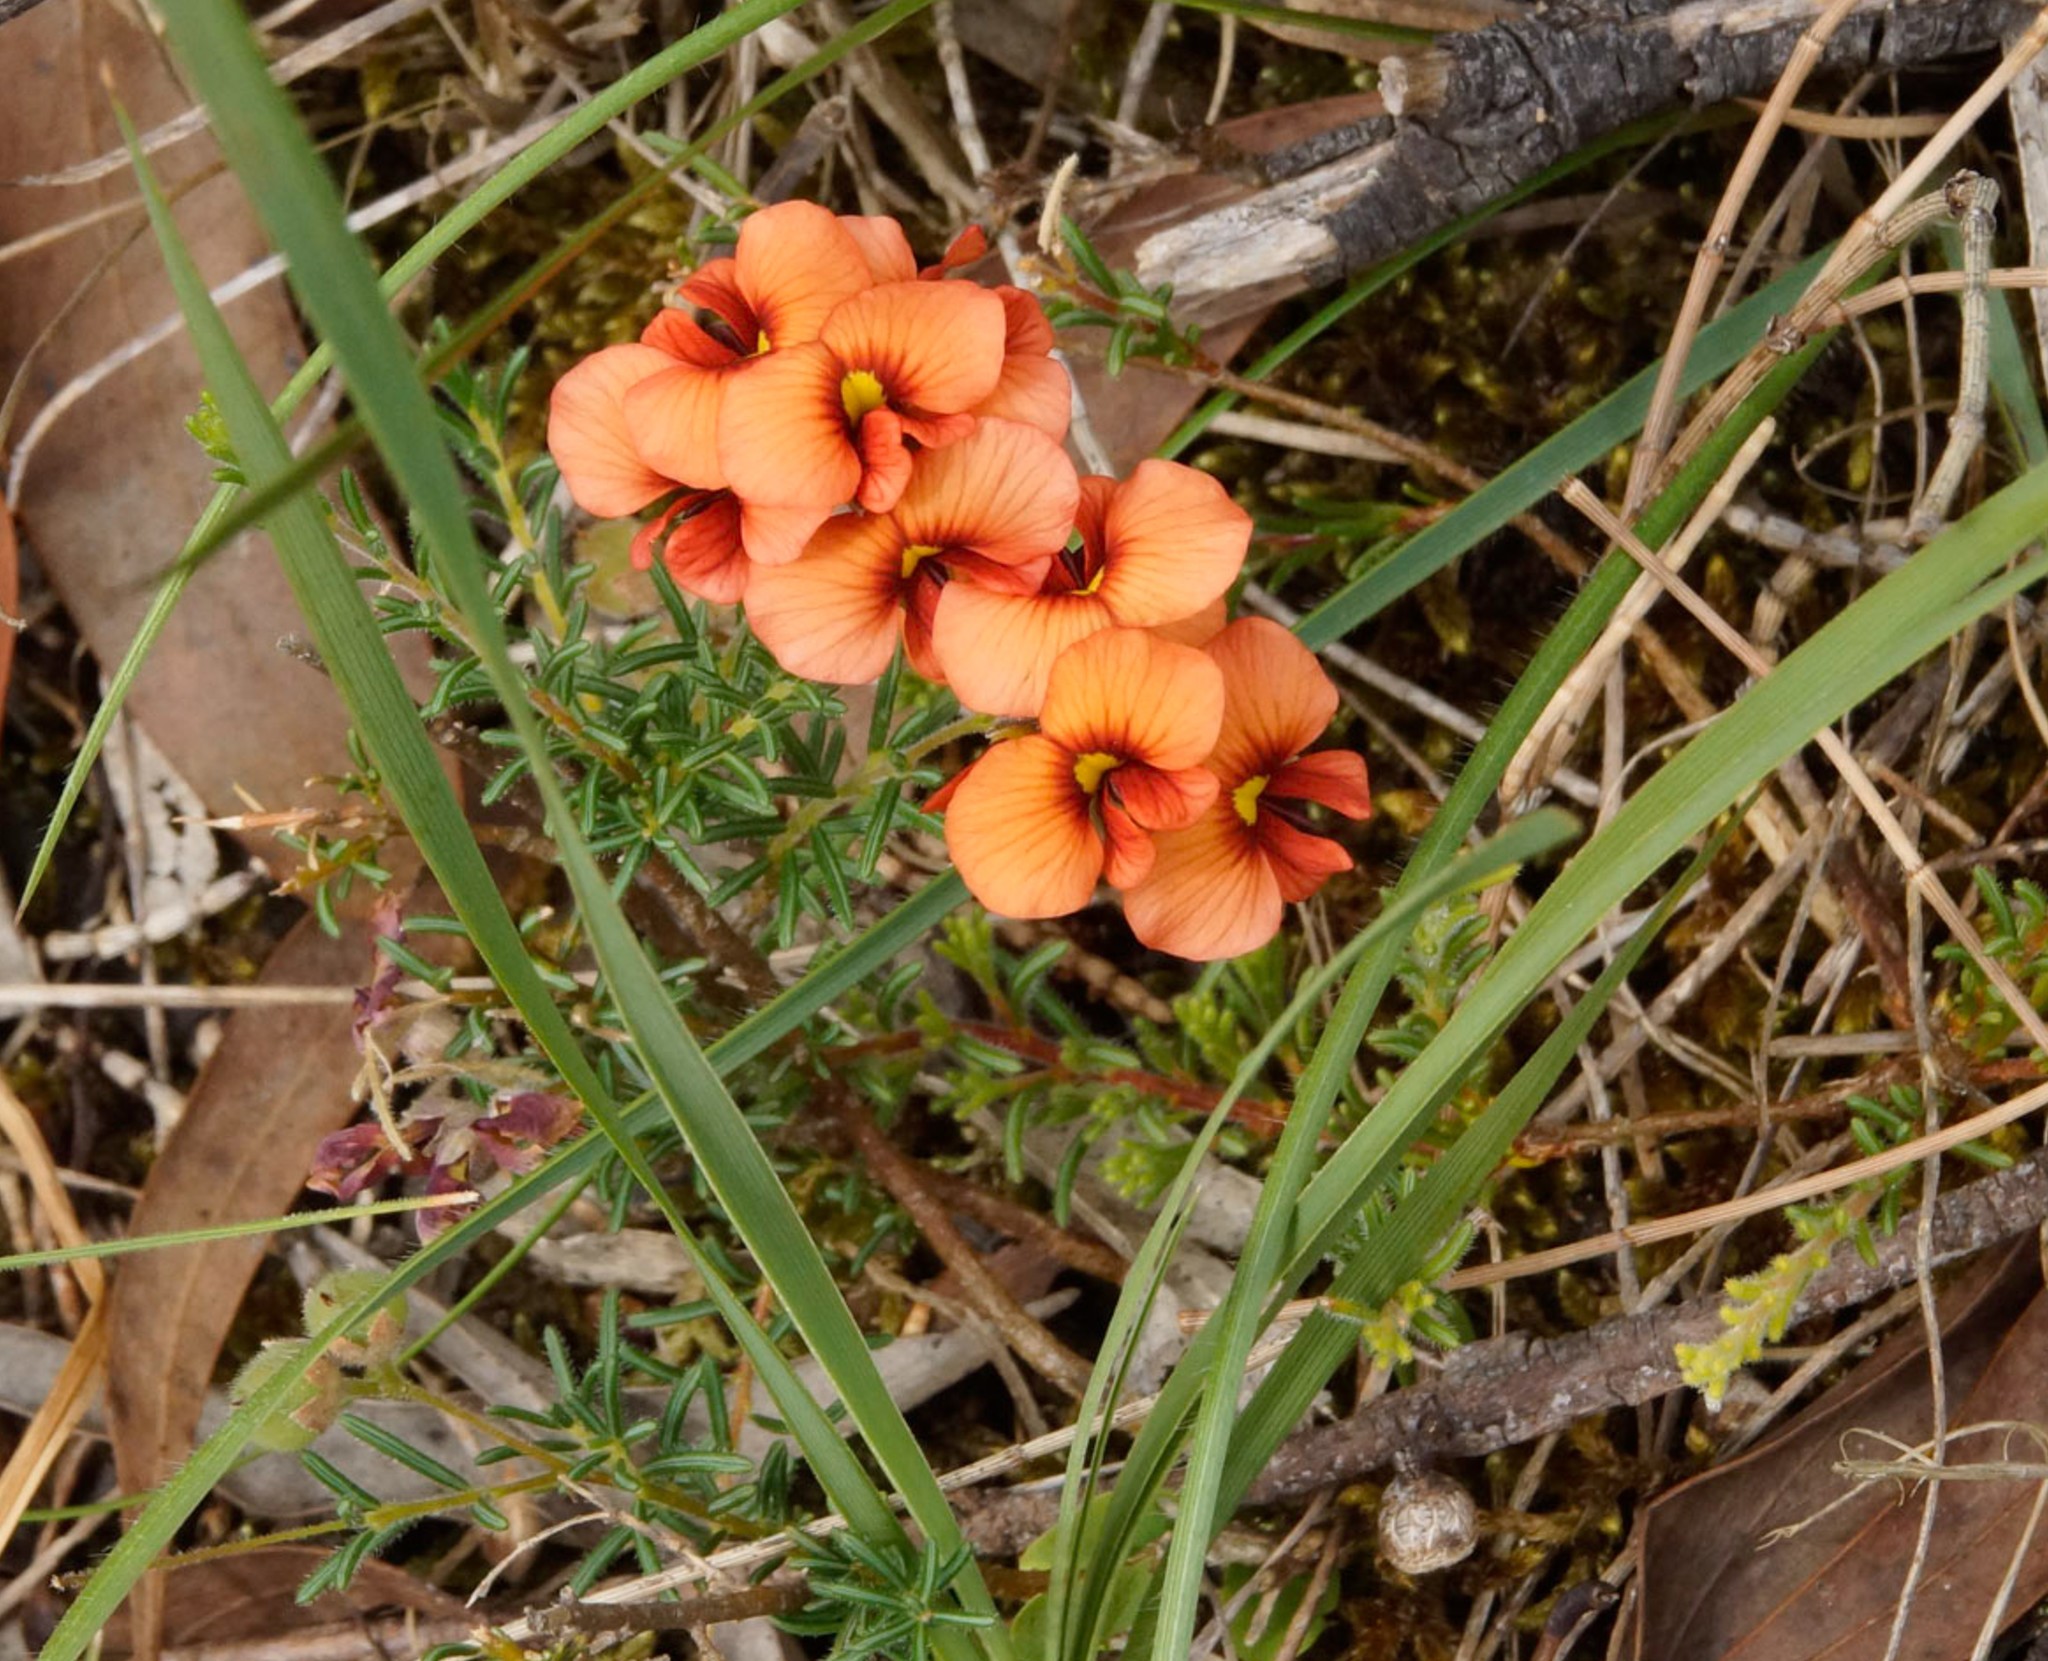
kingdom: Plantae
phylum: Tracheophyta
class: Magnoliopsida
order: Fabales
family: Fabaceae
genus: Dillwynia
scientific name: Dillwynia hispida
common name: Red parrot-pea
